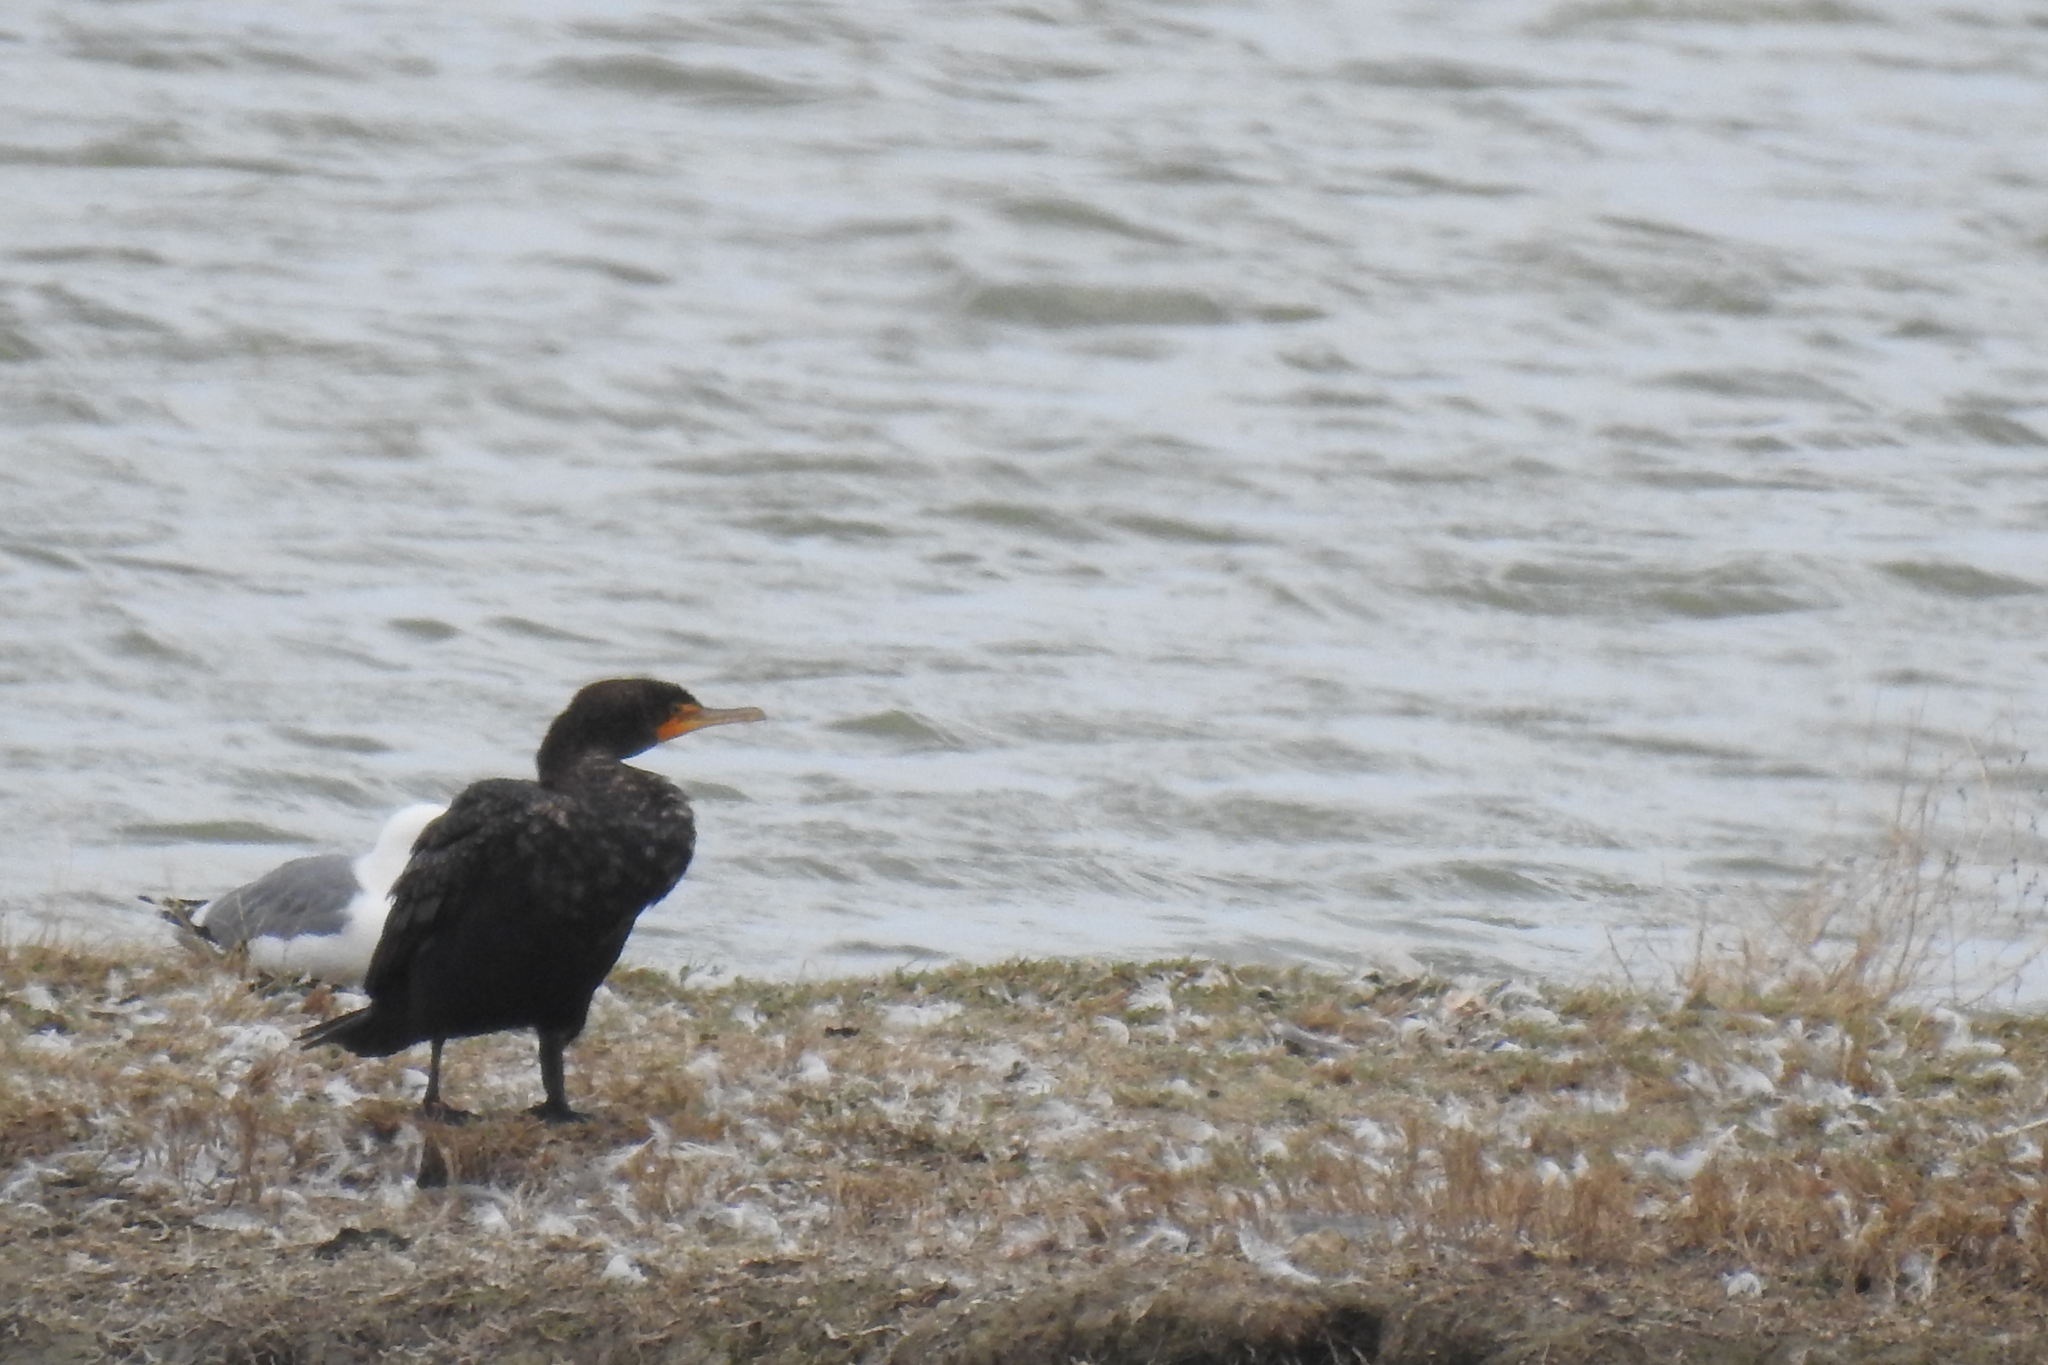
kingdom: Animalia
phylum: Chordata
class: Aves
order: Suliformes
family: Phalacrocoracidae
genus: Phalacrocorax
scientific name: Phalacrocorax auritus
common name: Double-crested cormorant
